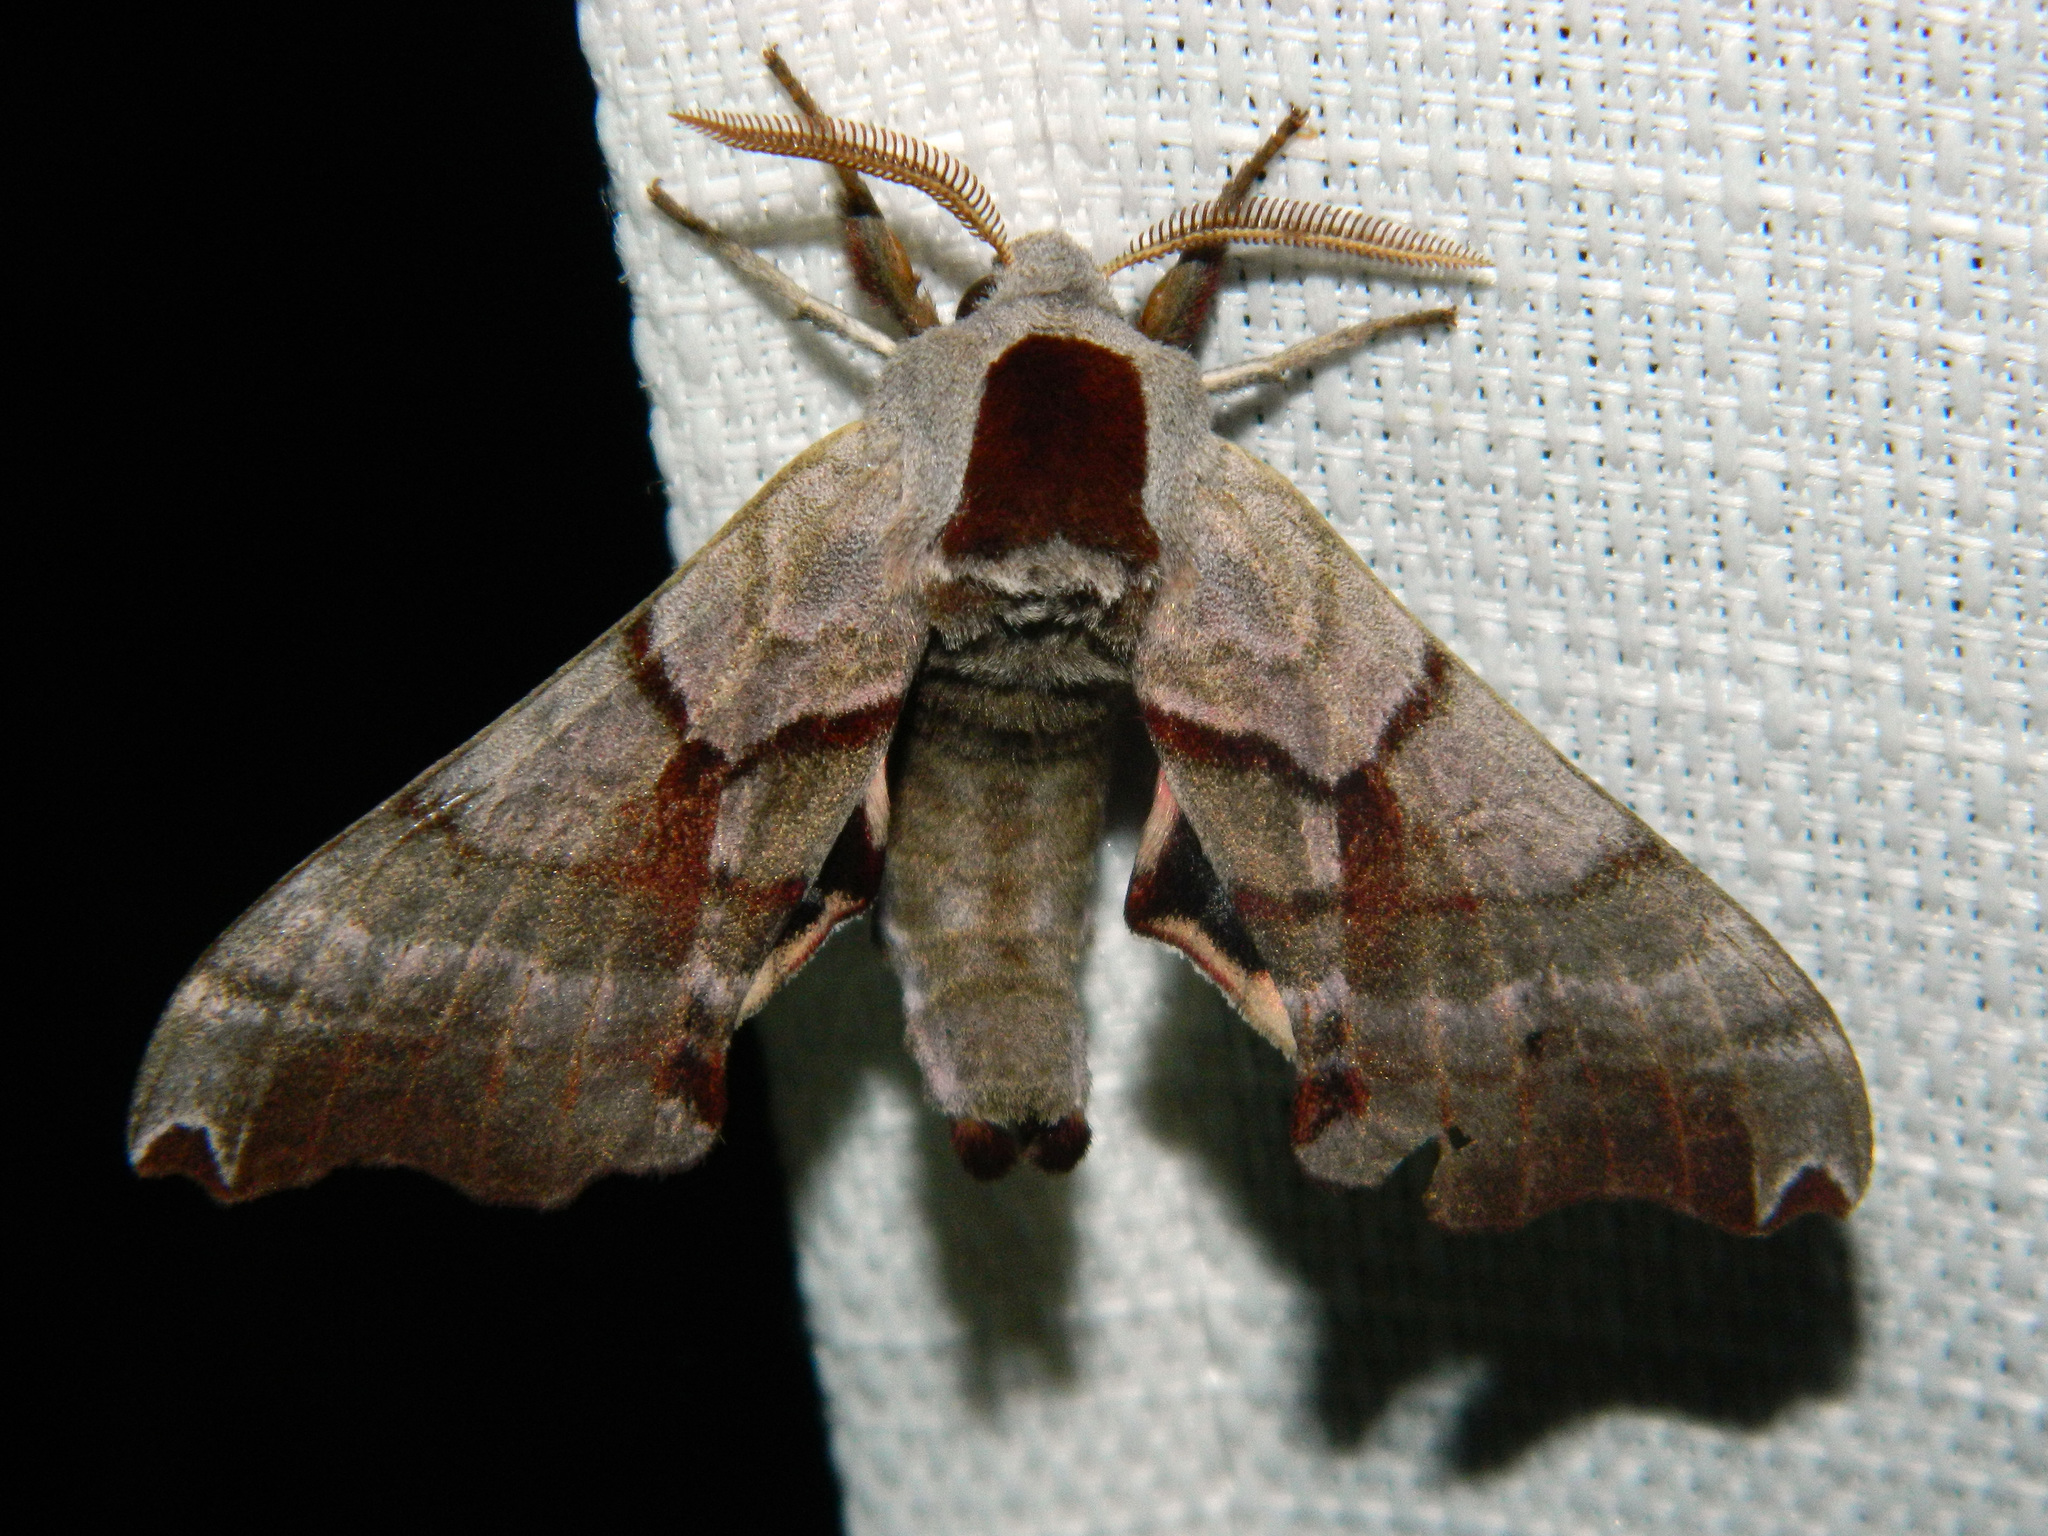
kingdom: Animalia
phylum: Arthropoda
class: Insecta
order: Lepidoptera
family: Sphingidae
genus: Smerinthus
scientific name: Smerinthus jamaicensis
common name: Twin spotted sphinx
